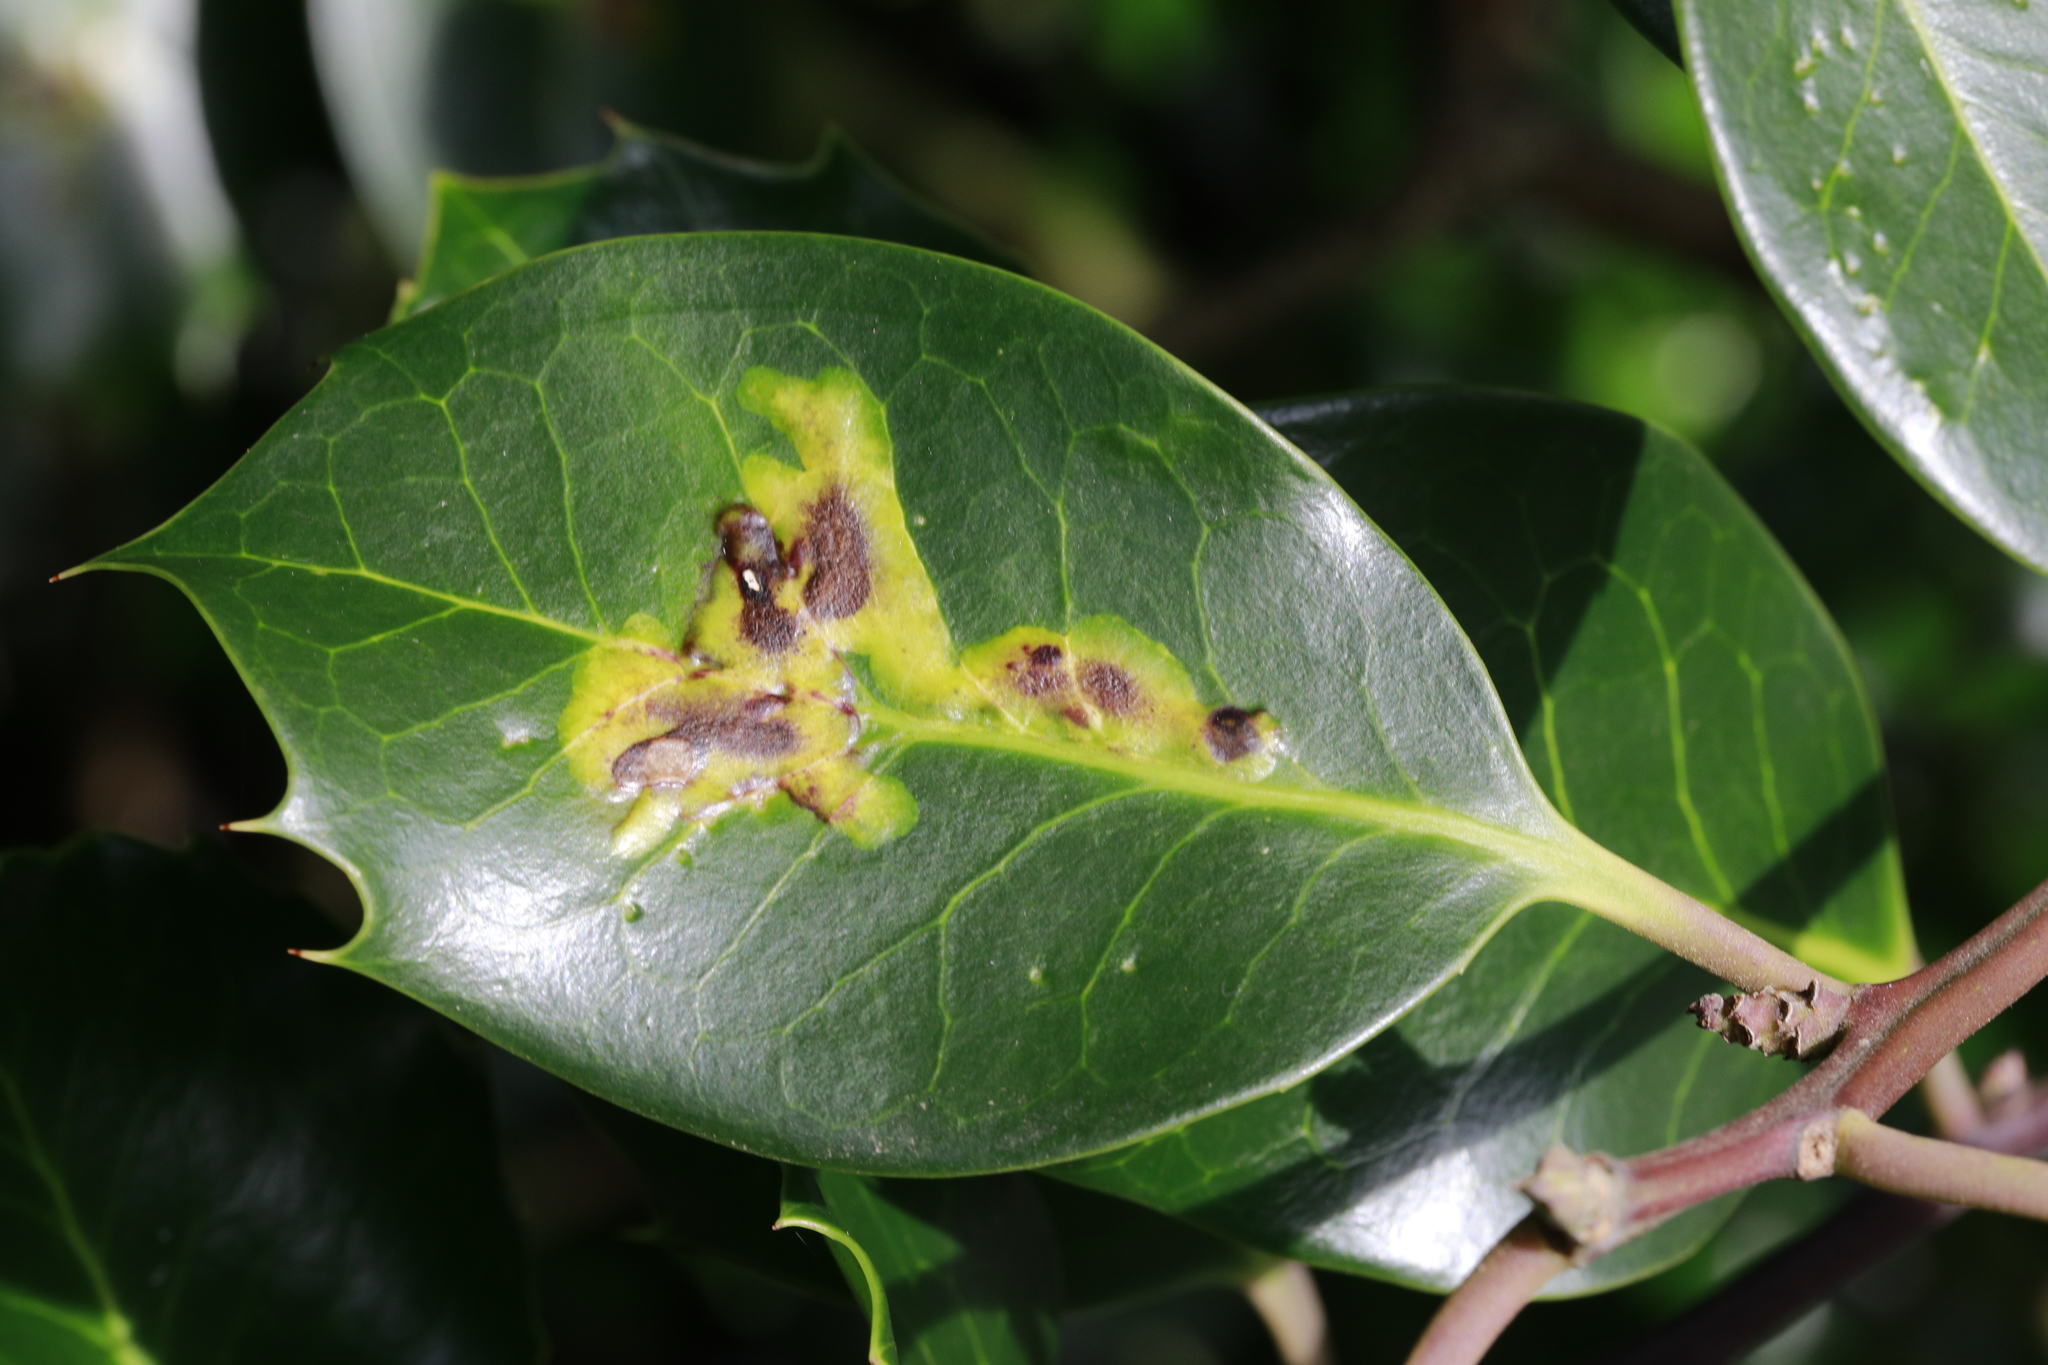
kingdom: Animalia
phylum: Arthropoda
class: Insecta
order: Diptera
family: Agromyzidae
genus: Phytomyza
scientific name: Phytomyza ilicis
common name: Holly leafminer
